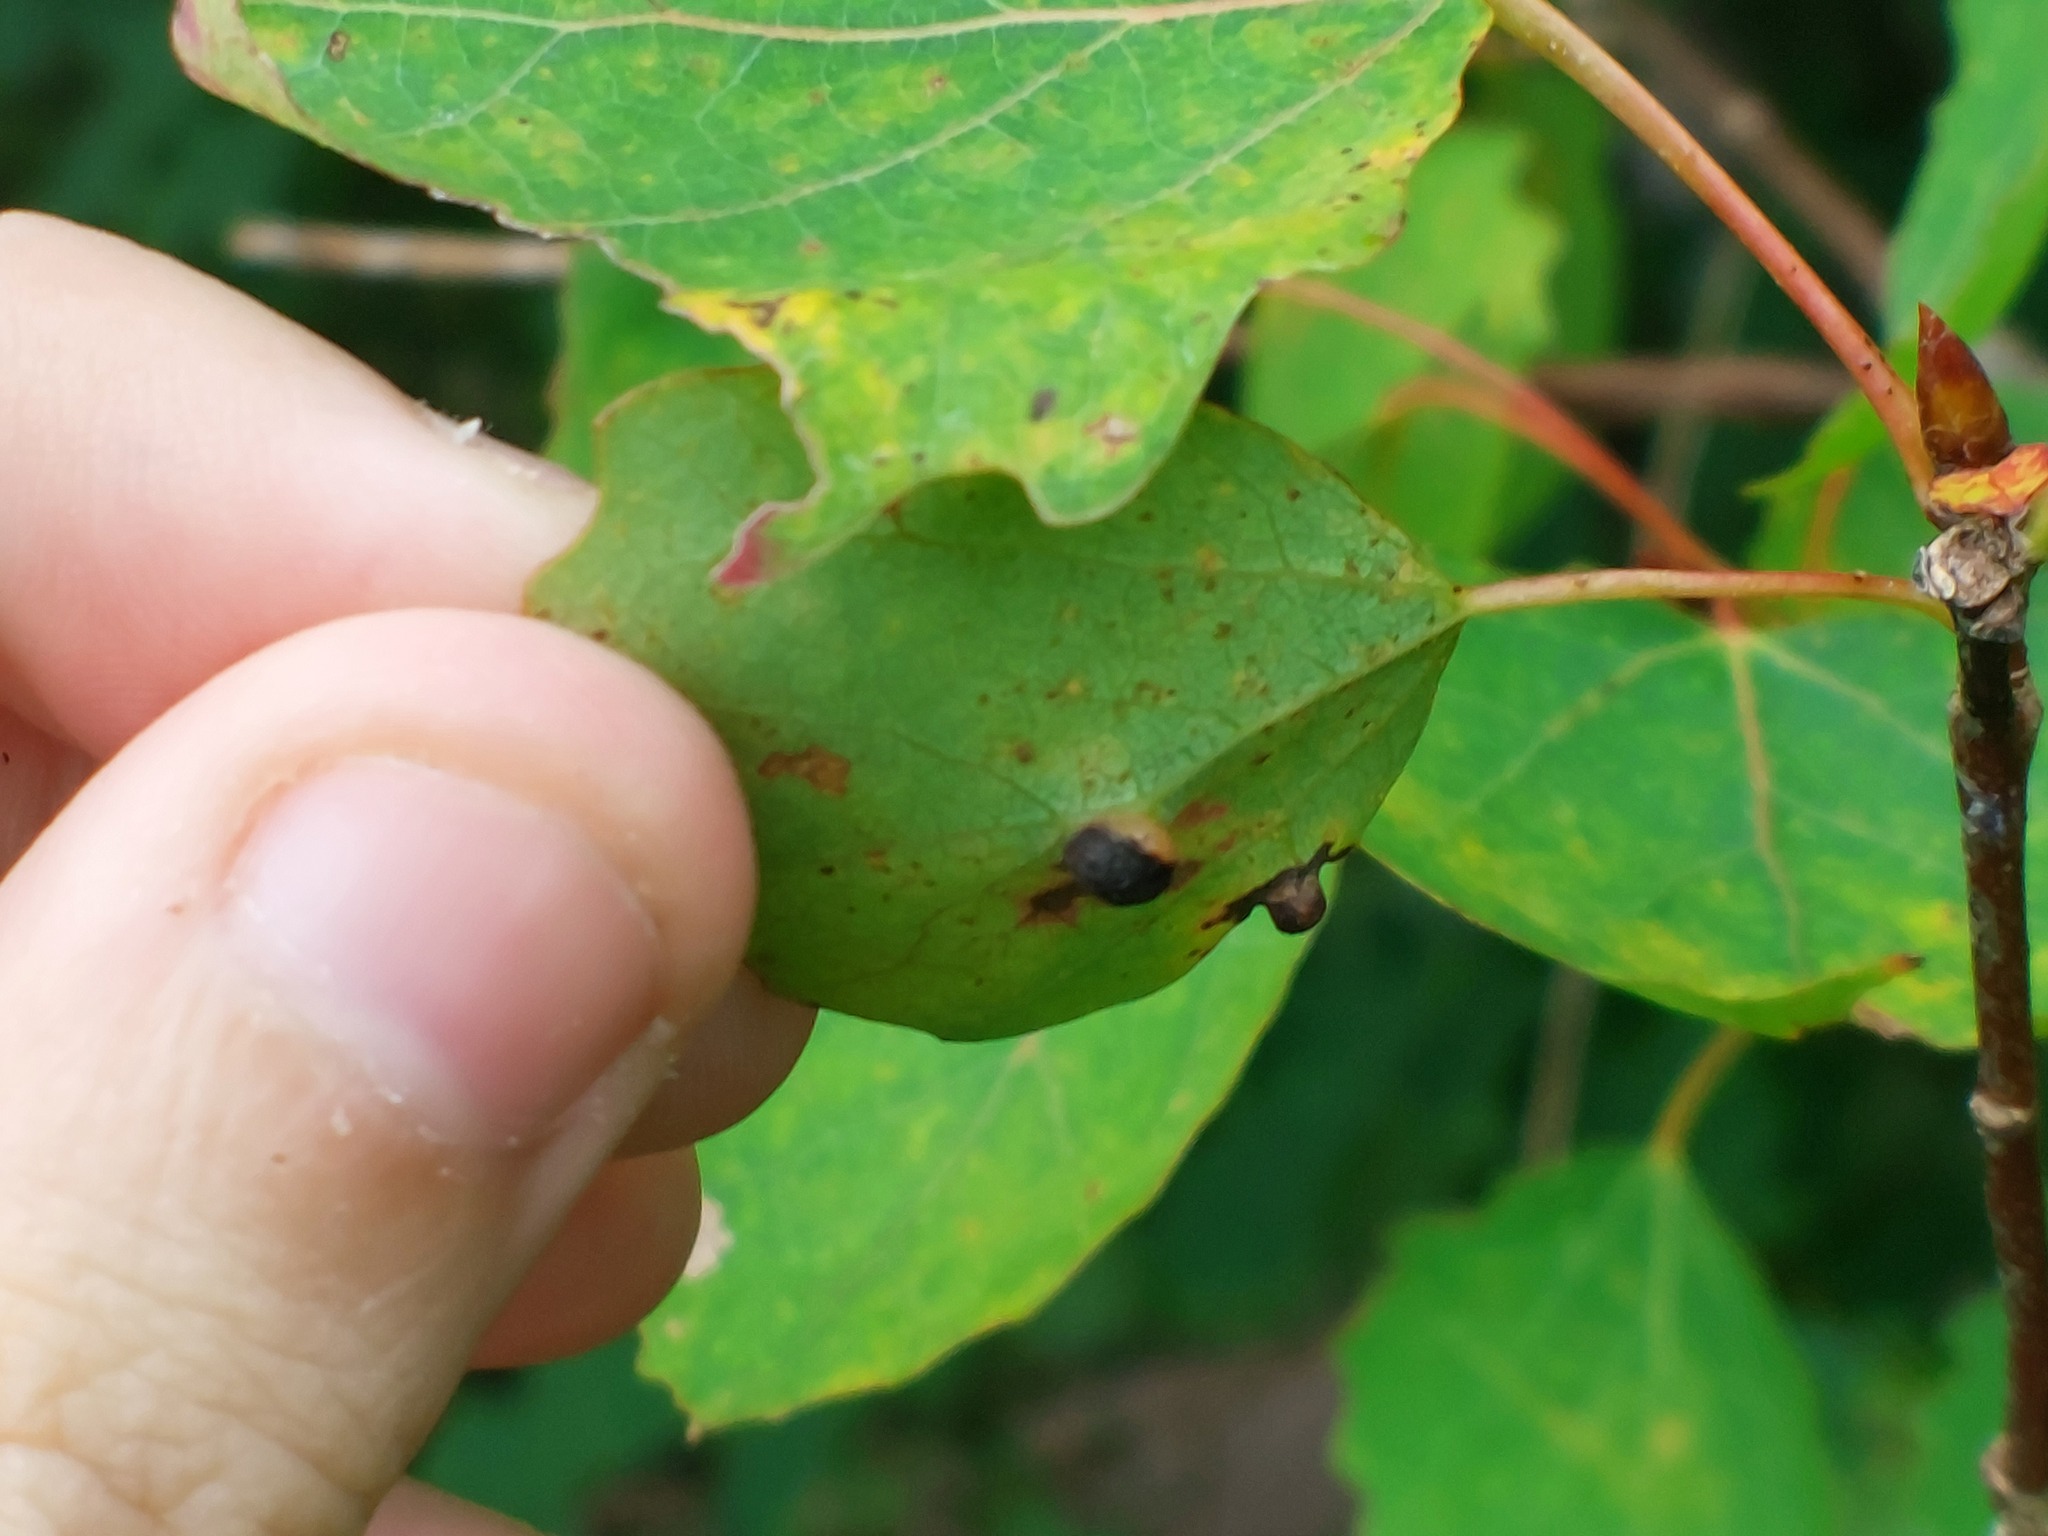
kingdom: Animalia
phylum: Arthropoda
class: Insecta
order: Diptera
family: Cecidomyiidae
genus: Harmandiola
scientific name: Harmandiola cavernosa
